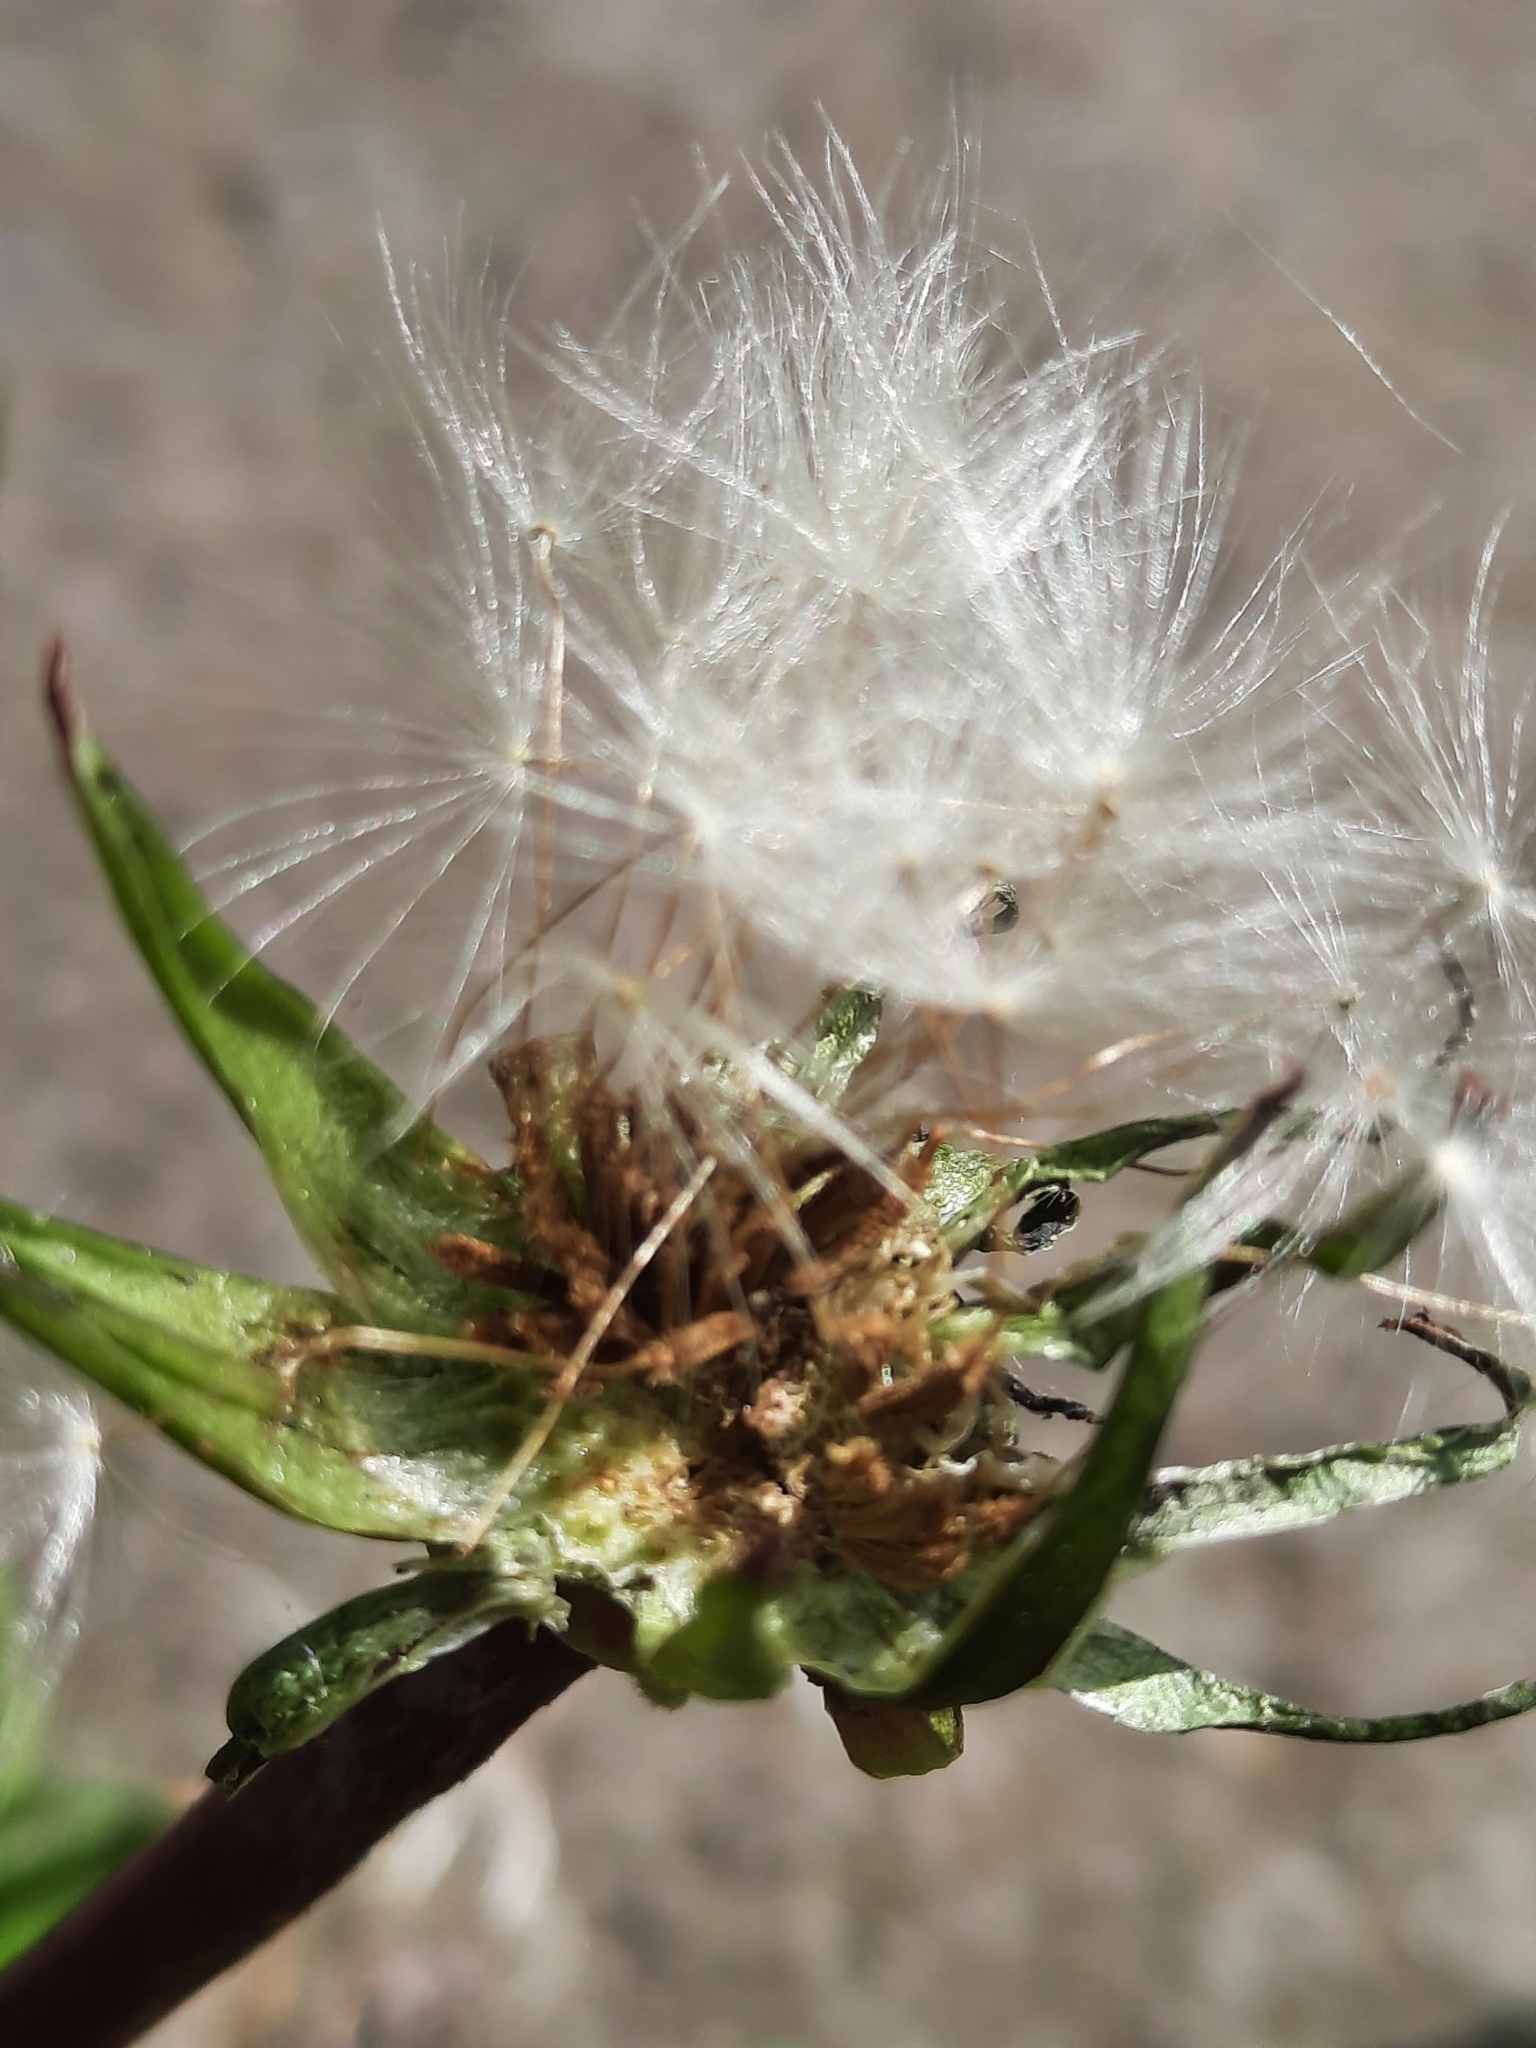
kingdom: Plantae
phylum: Tracheophyta
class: Magnoliopsida
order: Asterales
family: Asteraceae
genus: Taraxacum
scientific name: Taraxacum officinale
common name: Common dandelion
